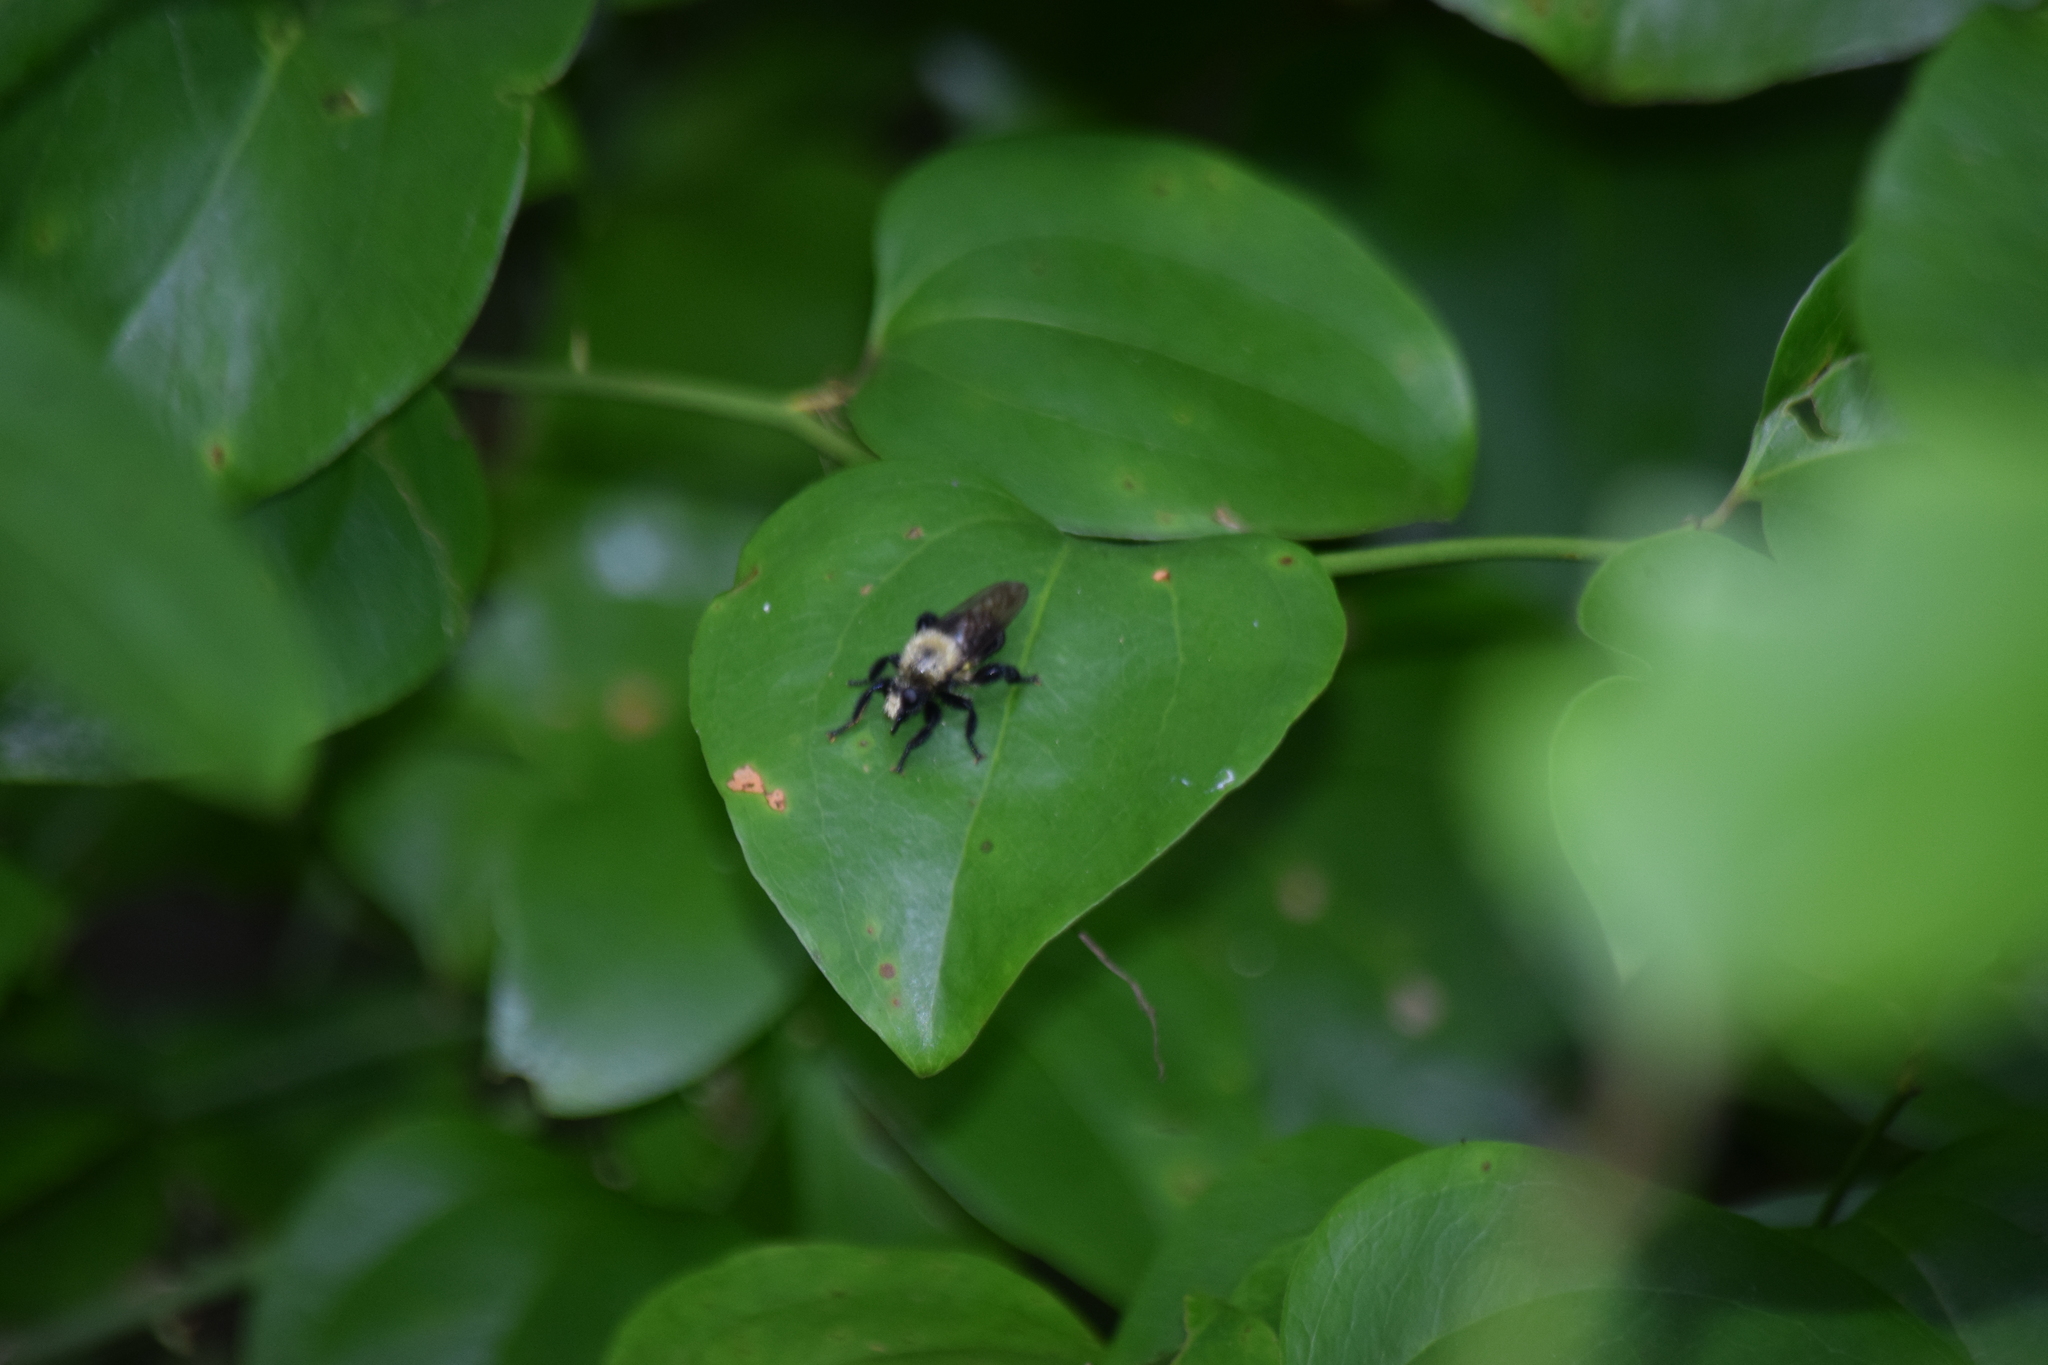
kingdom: Animalia
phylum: Arthropoda
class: Insecta
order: Diptera
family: Asilidae
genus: Laphria
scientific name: Laphria
